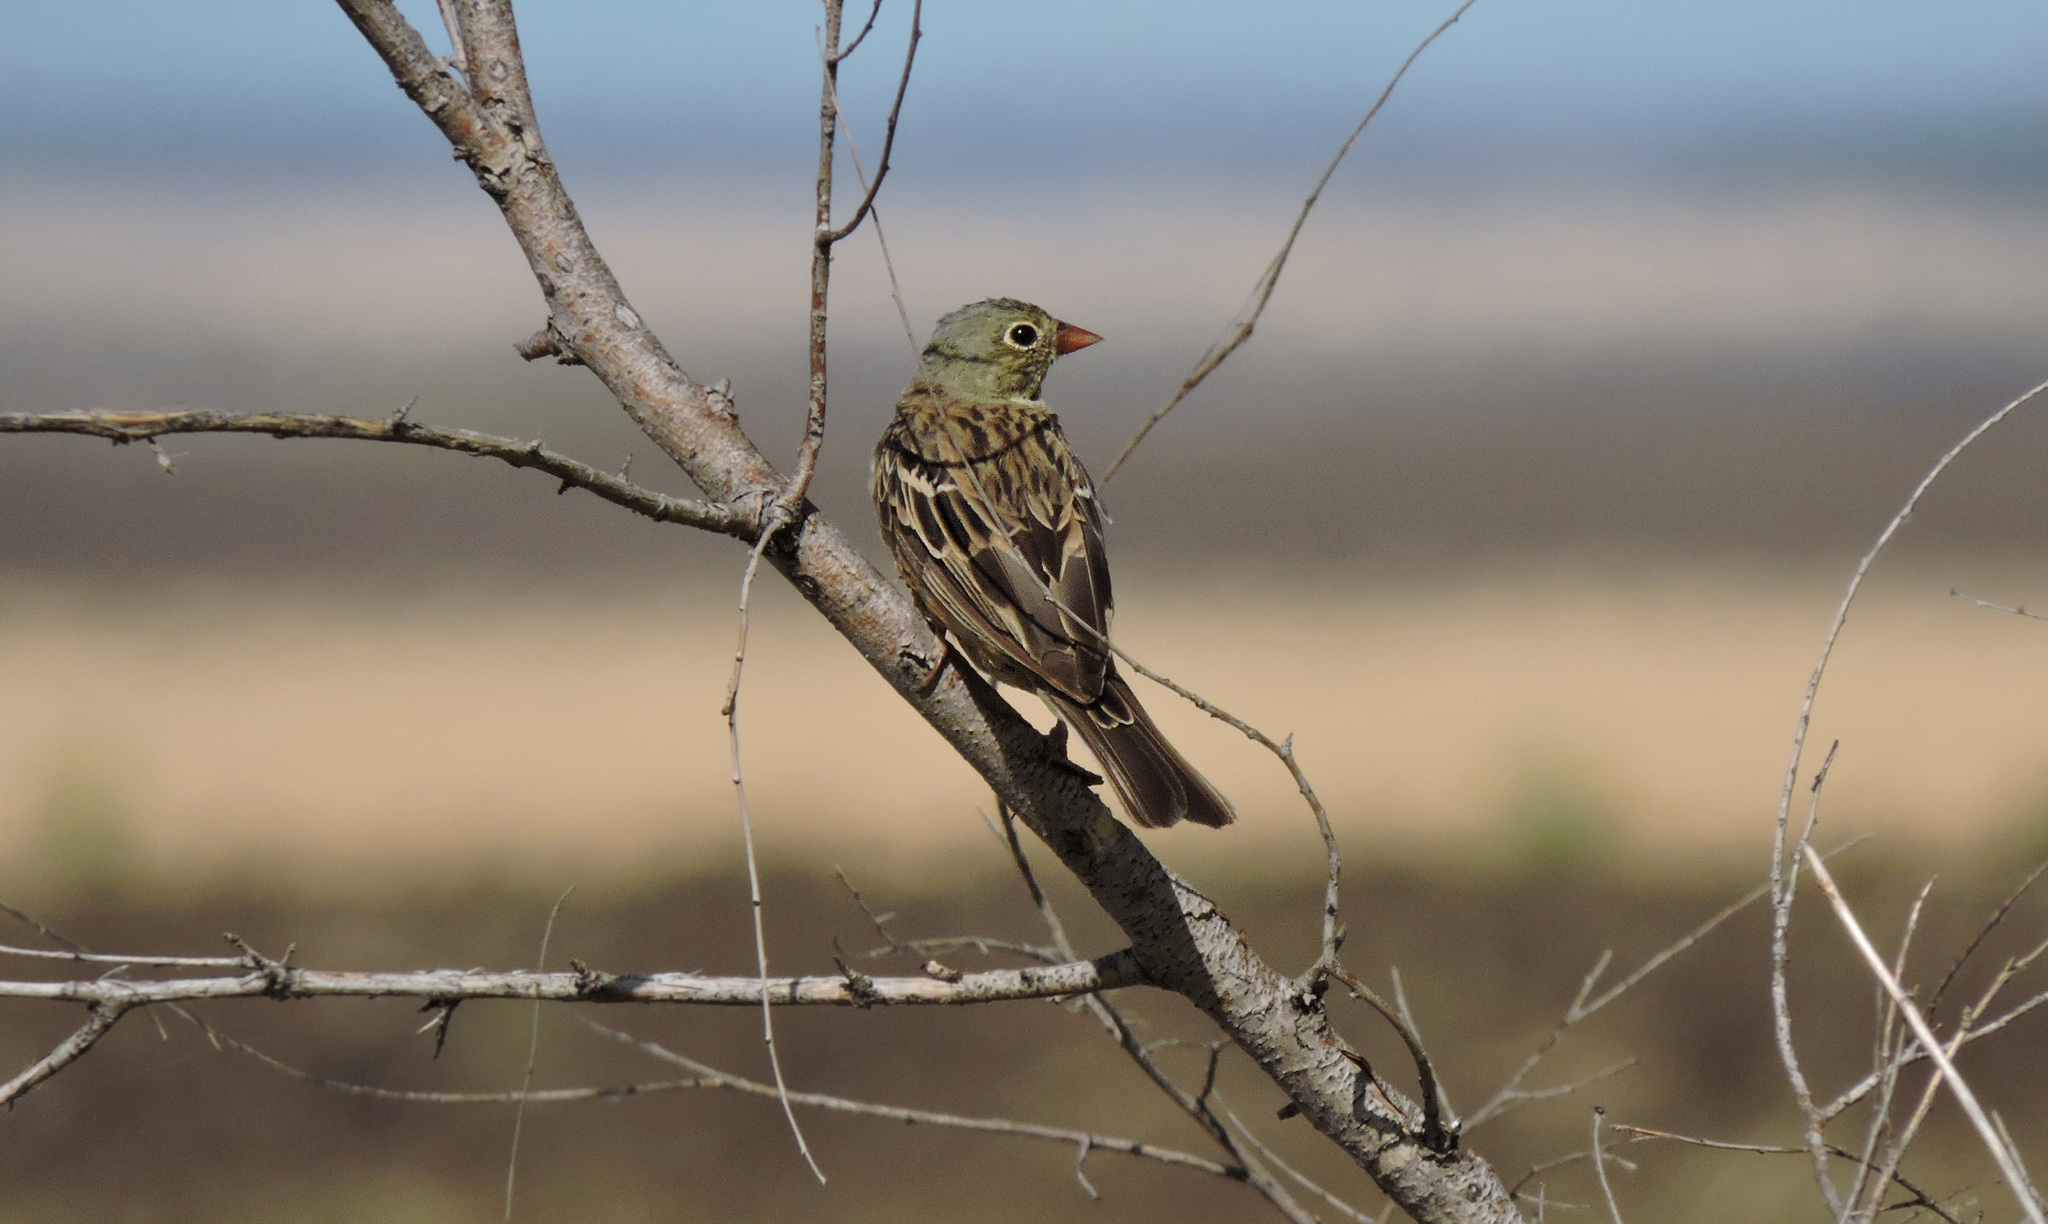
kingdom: Animalia
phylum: Chordata
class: Aves
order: Passeriformes
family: Emberizidae
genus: Emberiza
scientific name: Emberiza hortulana
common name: Ortolan bunting
